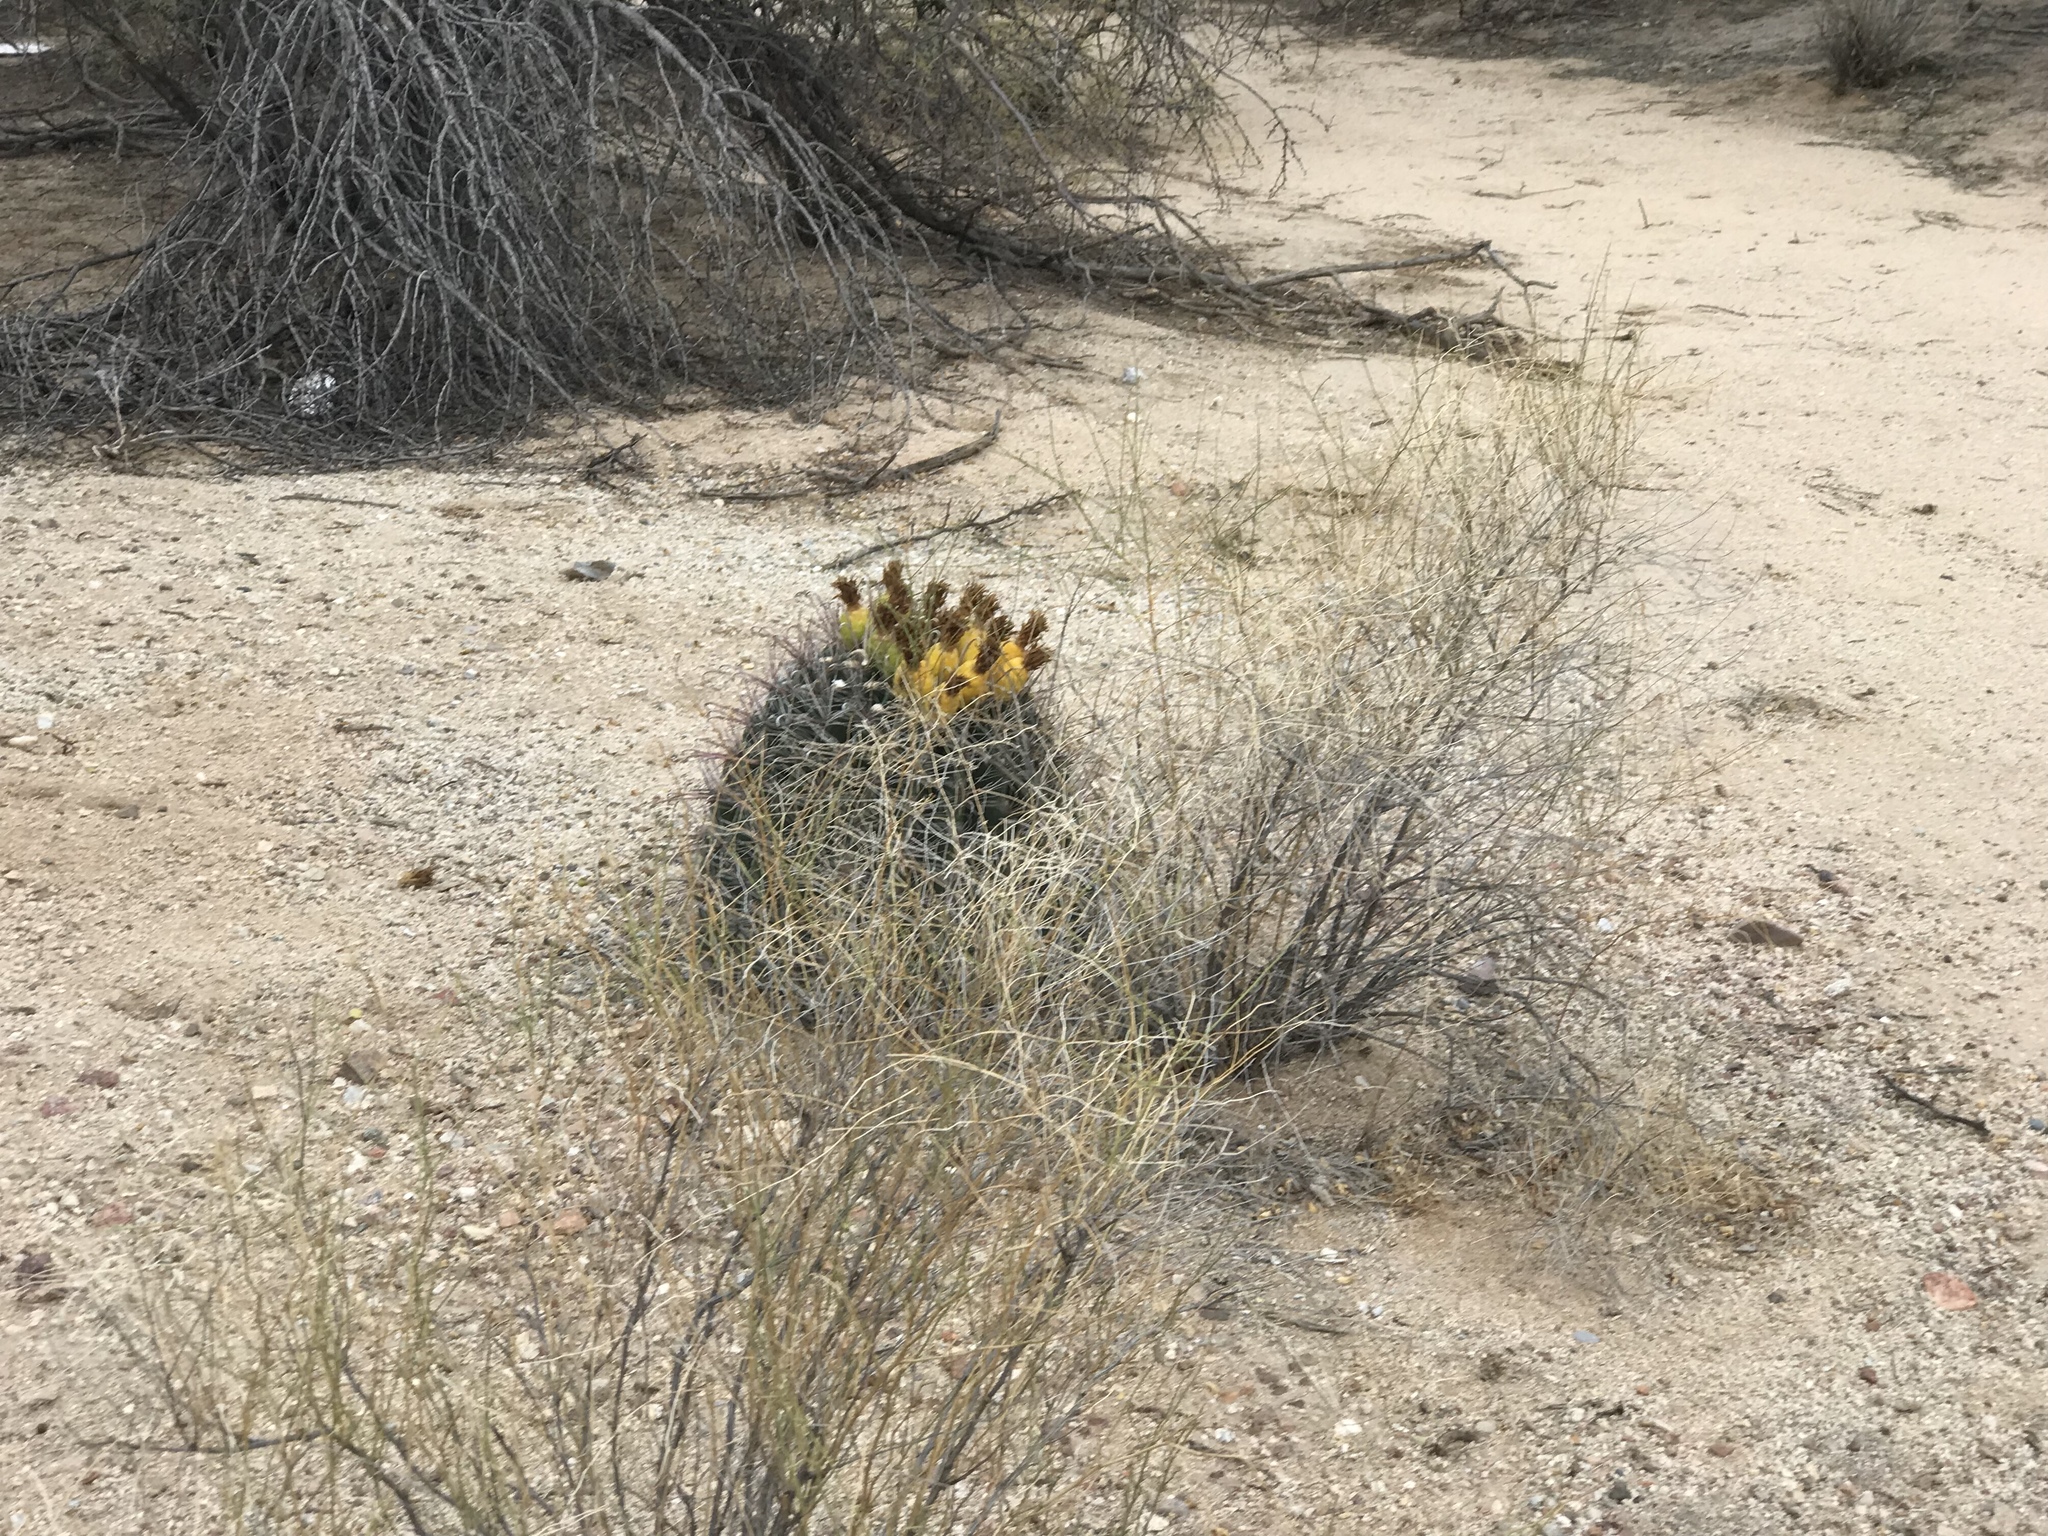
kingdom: Plantae
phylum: Tracheophyta
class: Magnoliopsida
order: Caryophyllales
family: Cactaceae
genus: Ferocactus
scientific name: Ferocactus wislizeni
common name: Candy barrel cactus
